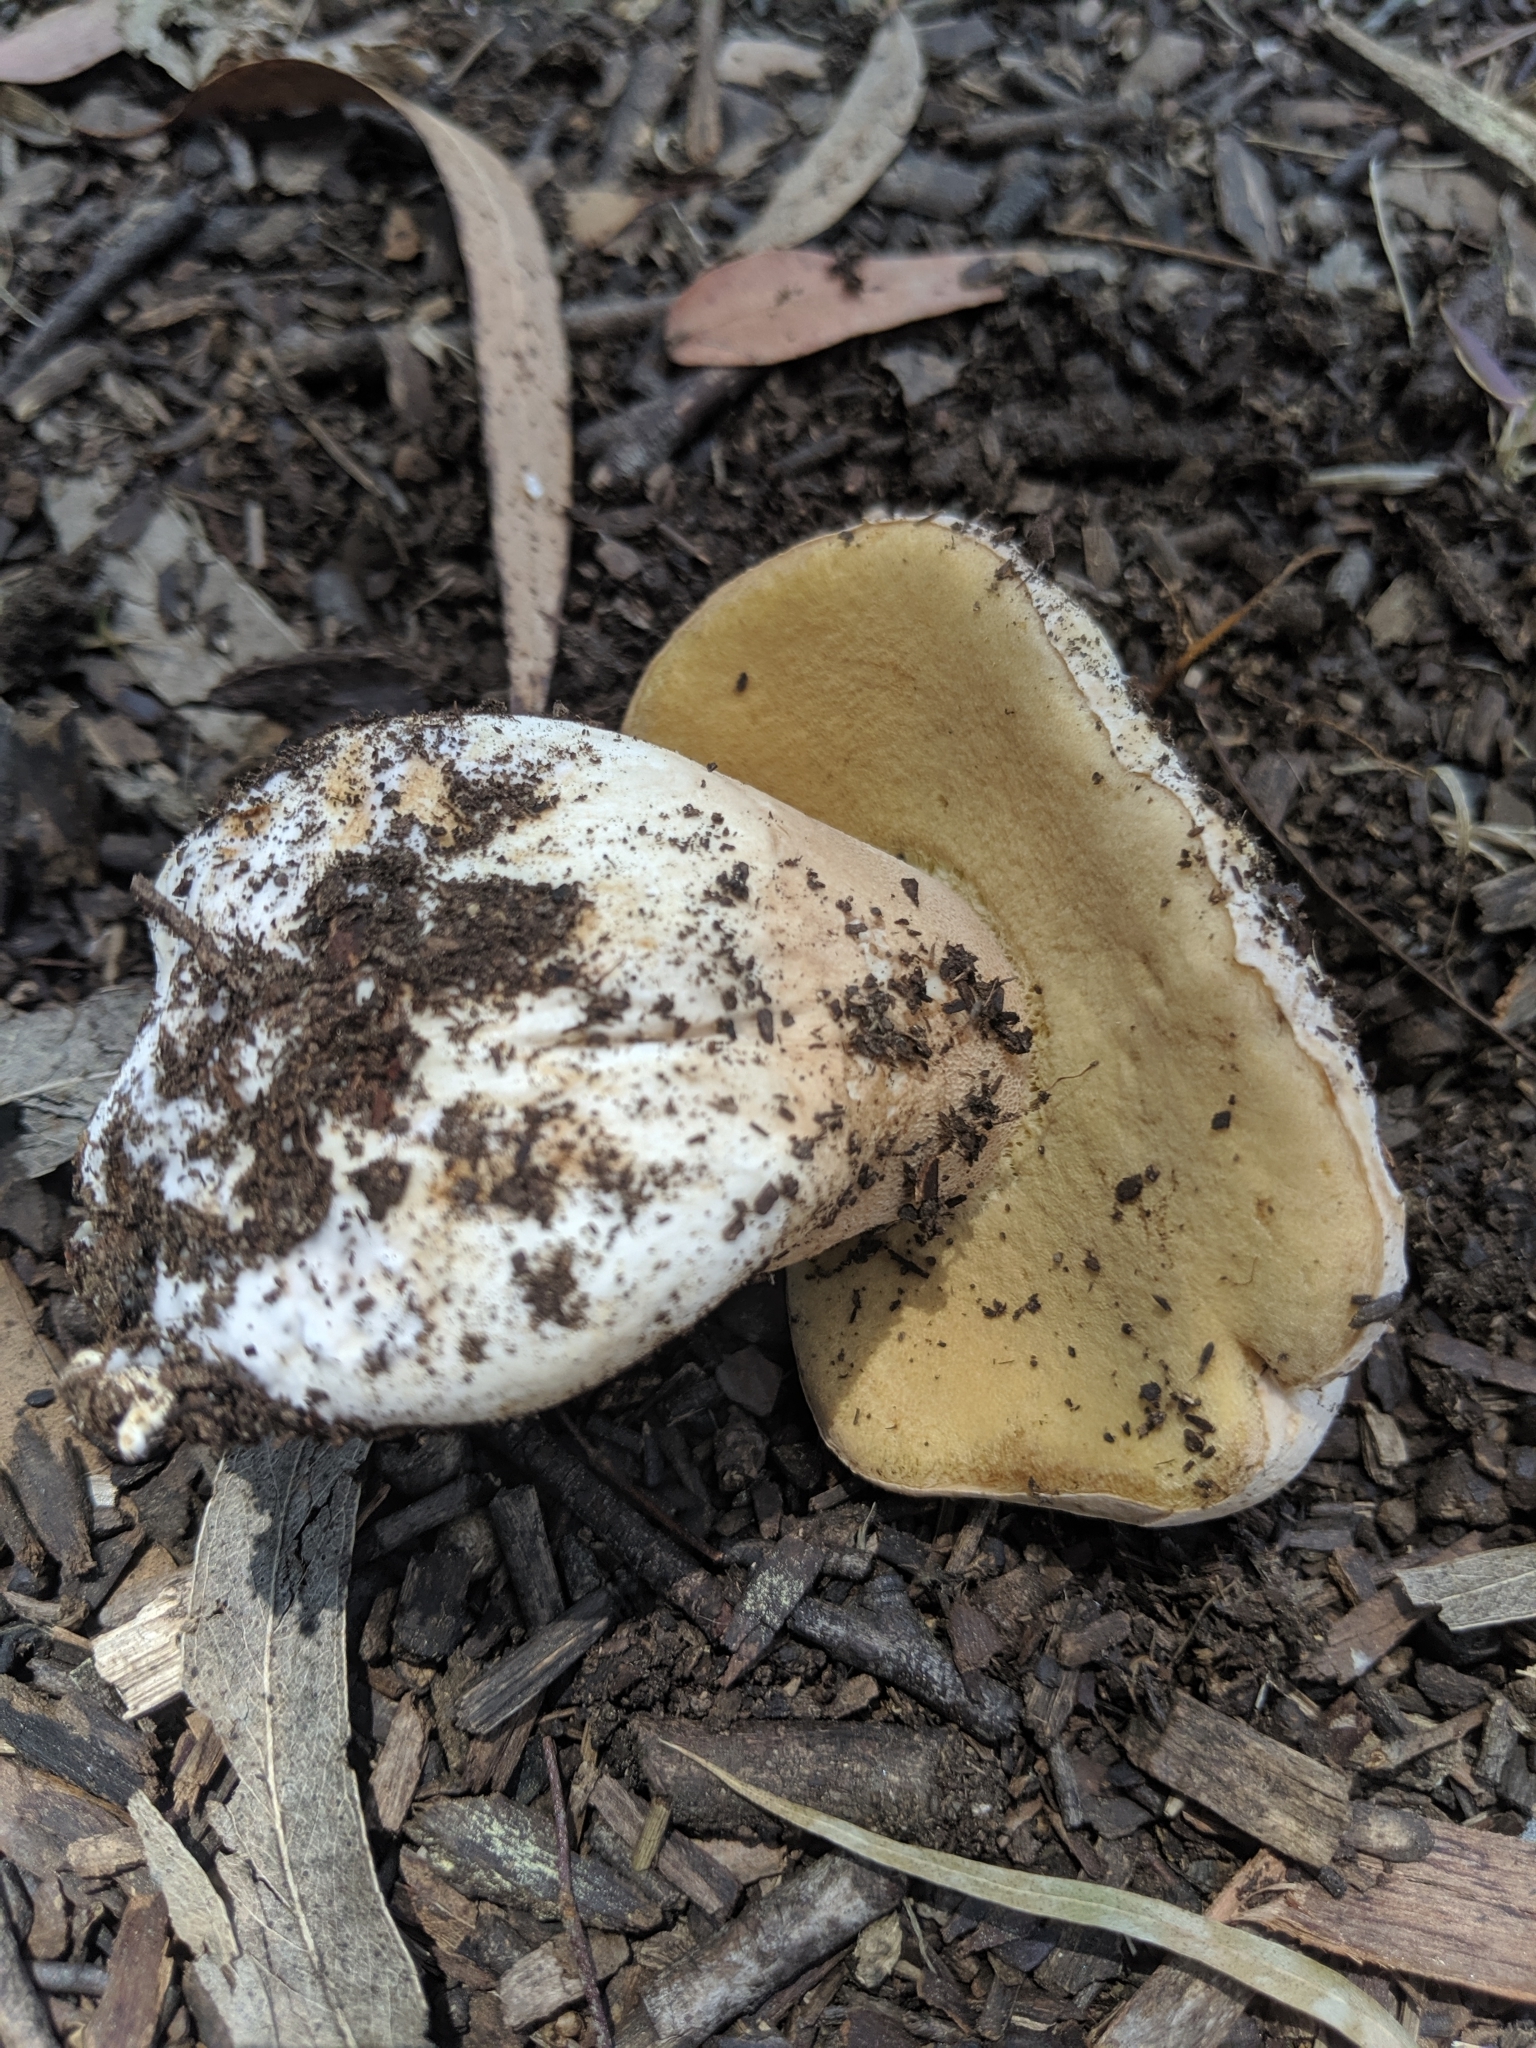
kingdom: Fungi
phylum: Basidiomycota
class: Agaricomycetes
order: Boletales
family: Boletaceae
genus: Boletus
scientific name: Boletus barrowsii
